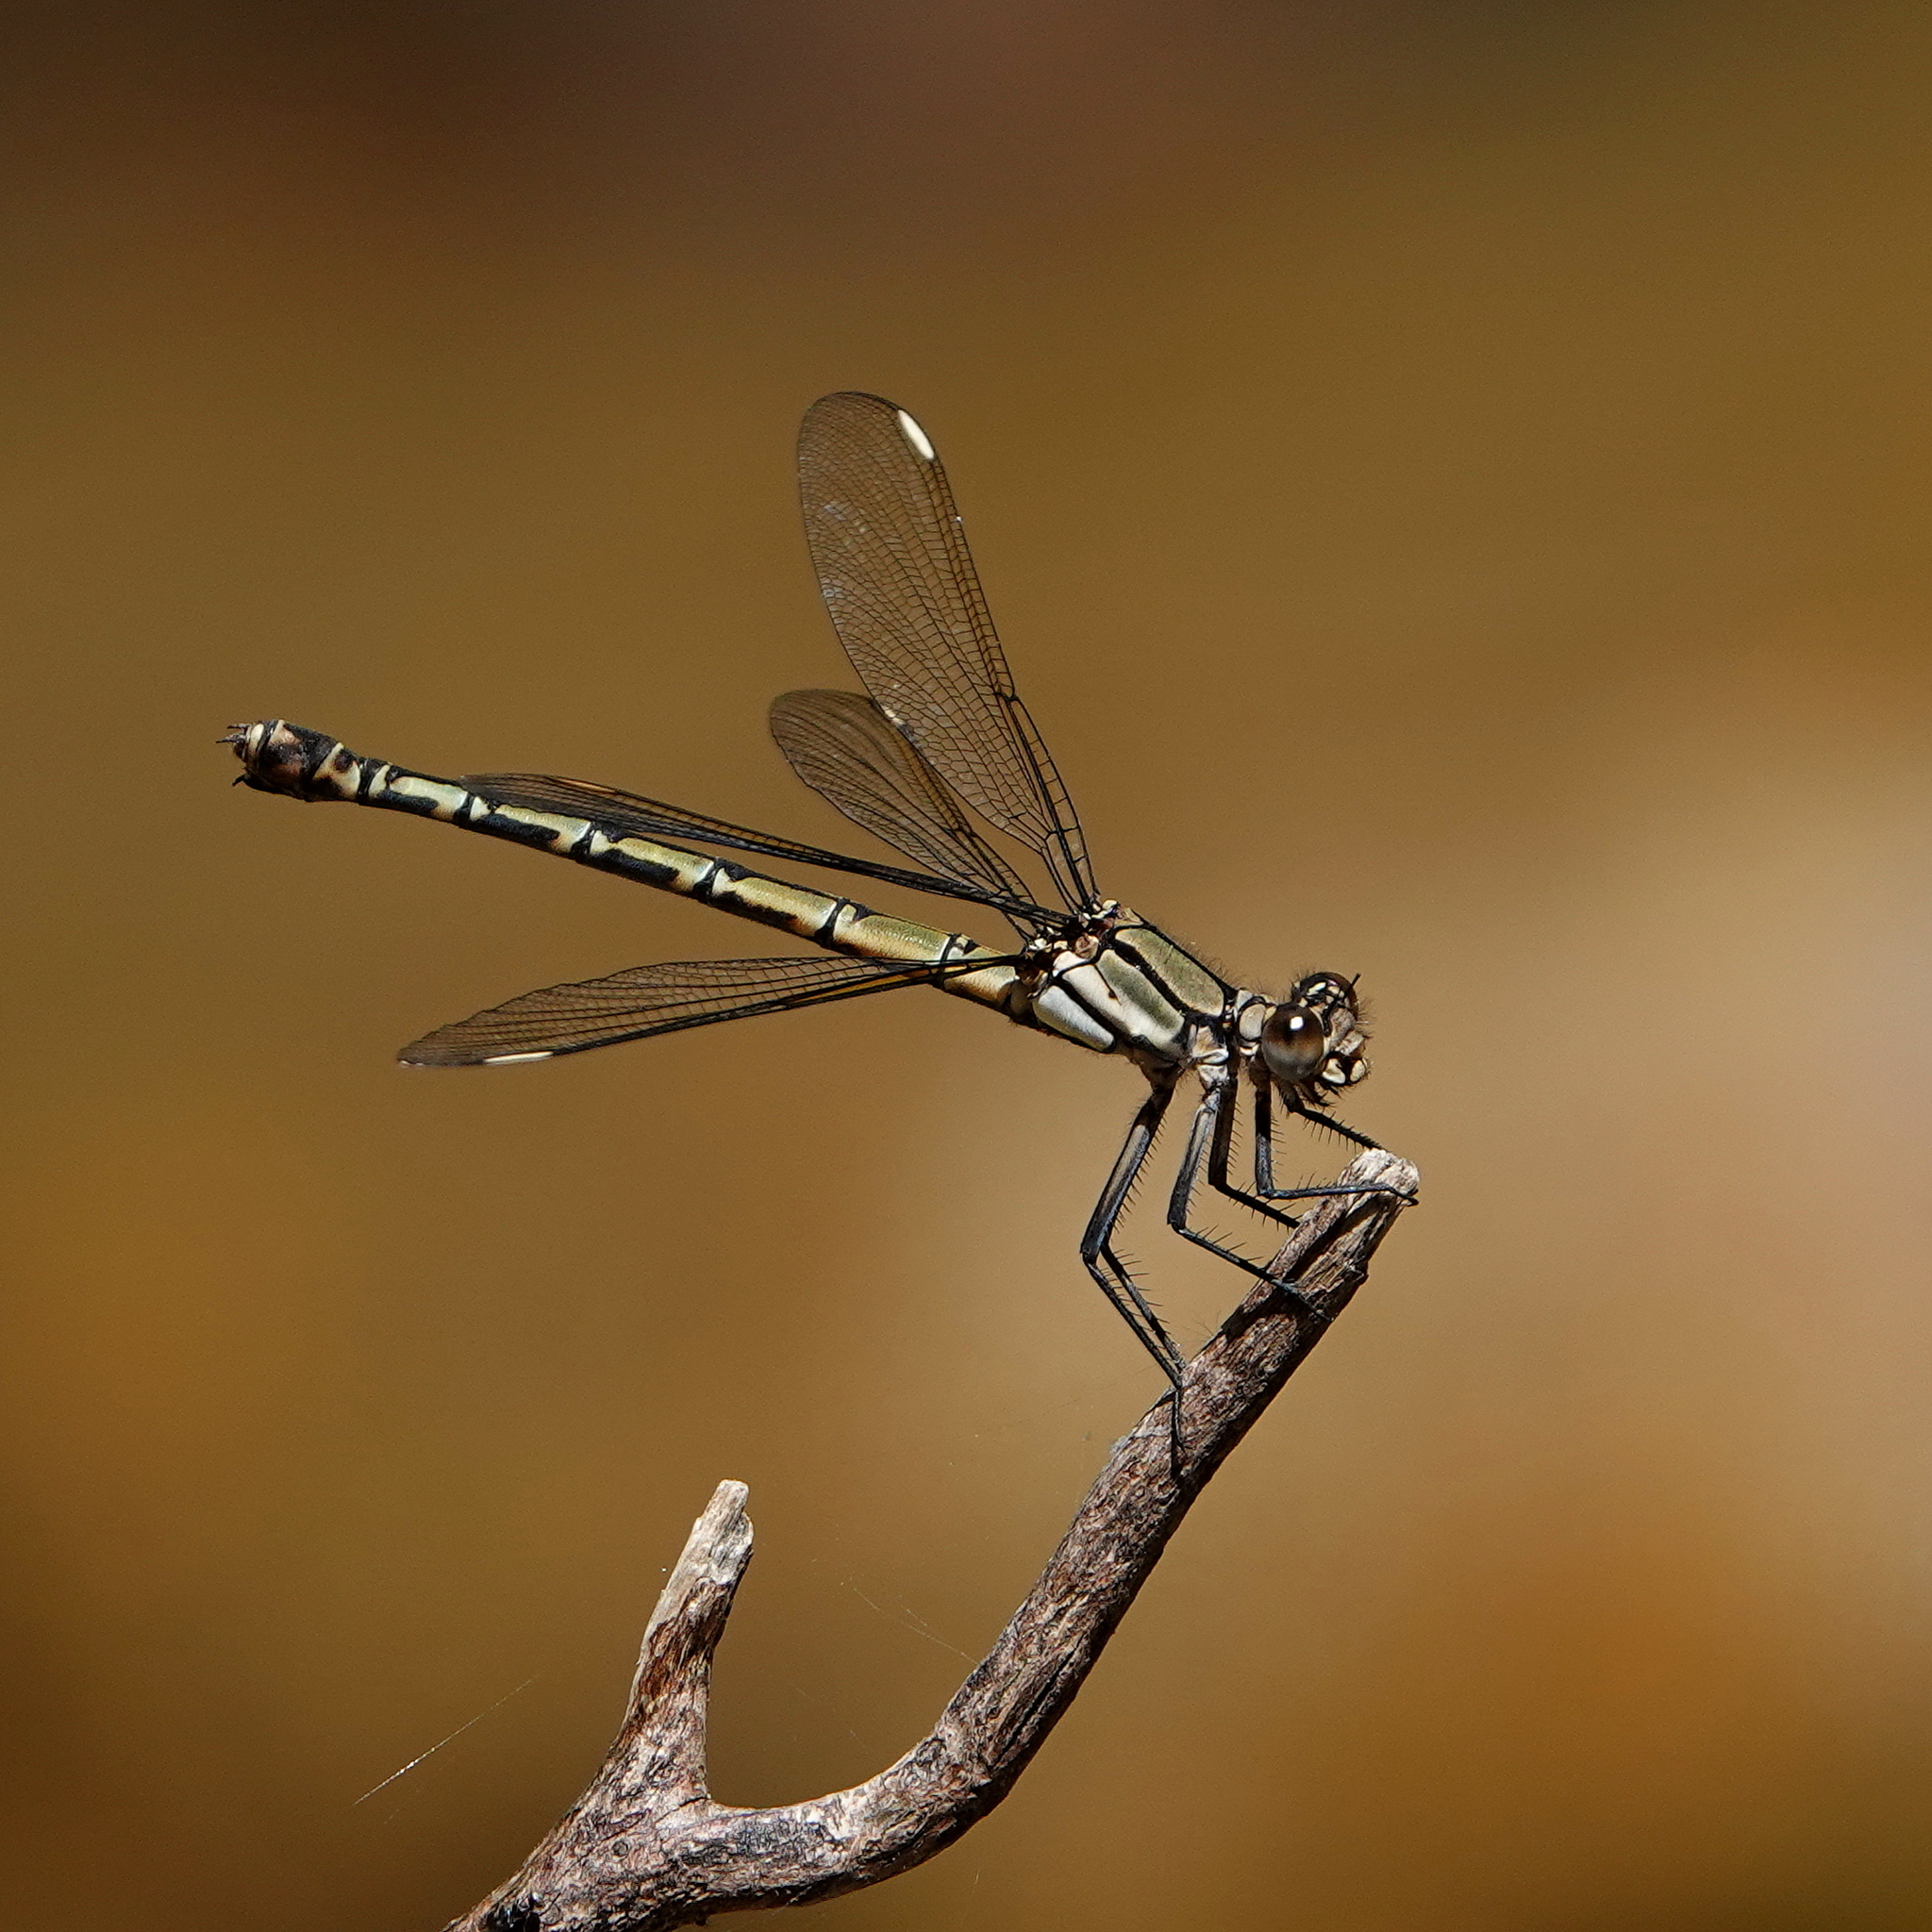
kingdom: Animalia
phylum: Arthropoda
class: Insecta
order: Odonata
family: Lestoideidae
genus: Diphlebia
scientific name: Diphlebia nymphoides
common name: Arrowhead rockmaster
